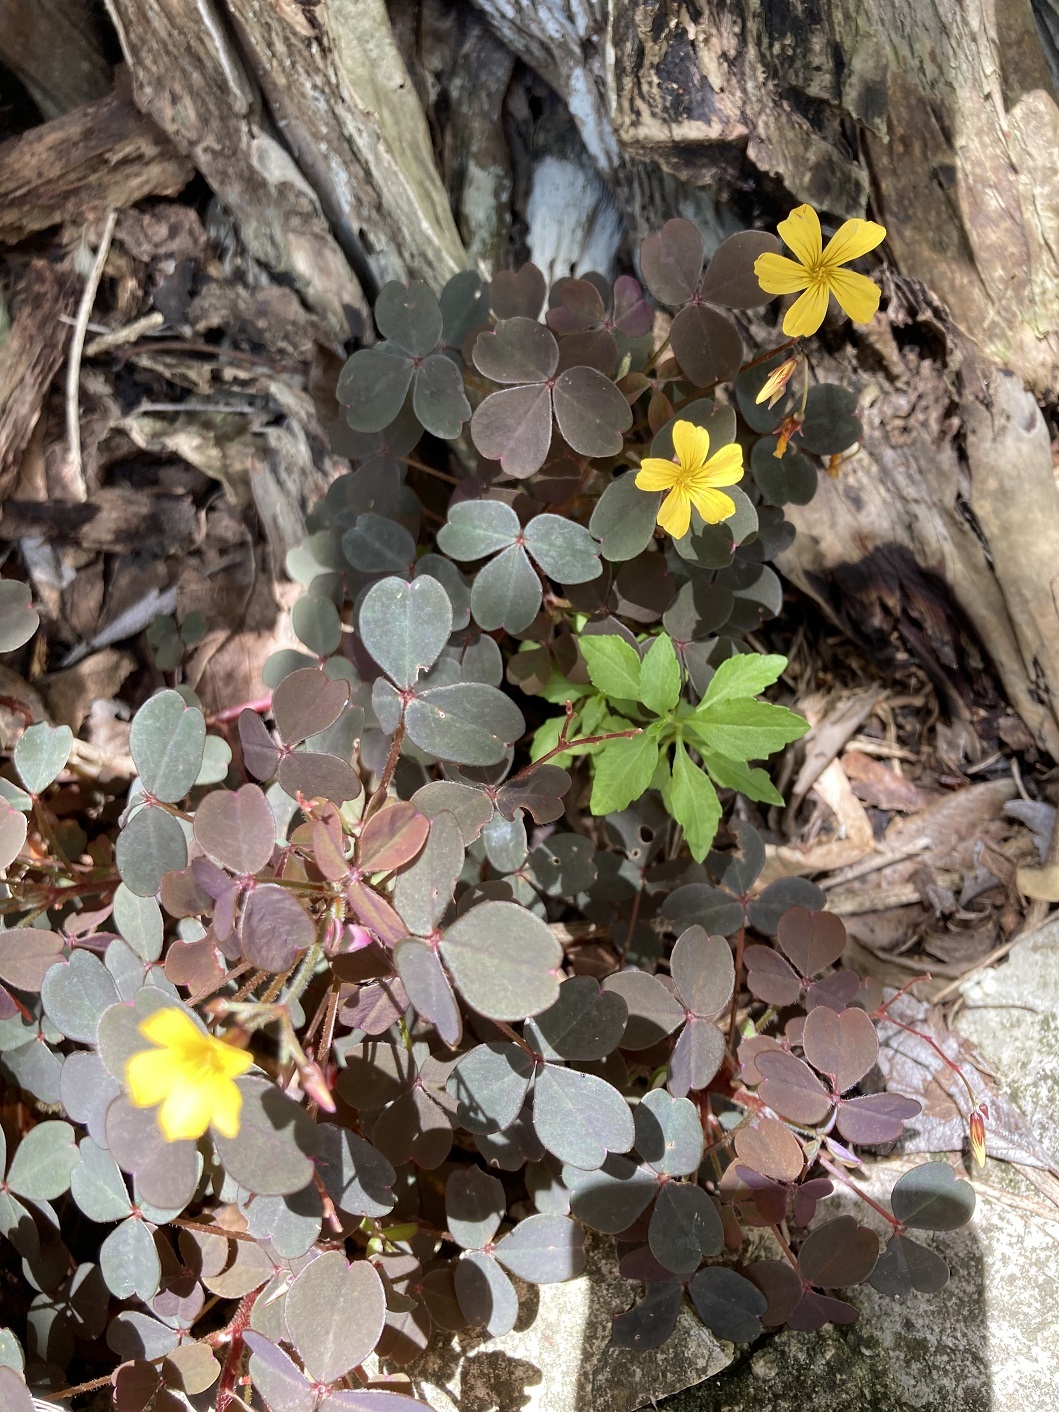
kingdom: Plantae
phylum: Tracheophyta
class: Magnoliopsida
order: Oxalidales
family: Oxalidaceae
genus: Oxalis
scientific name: Oxalis spiralis
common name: Spiral sorrel
